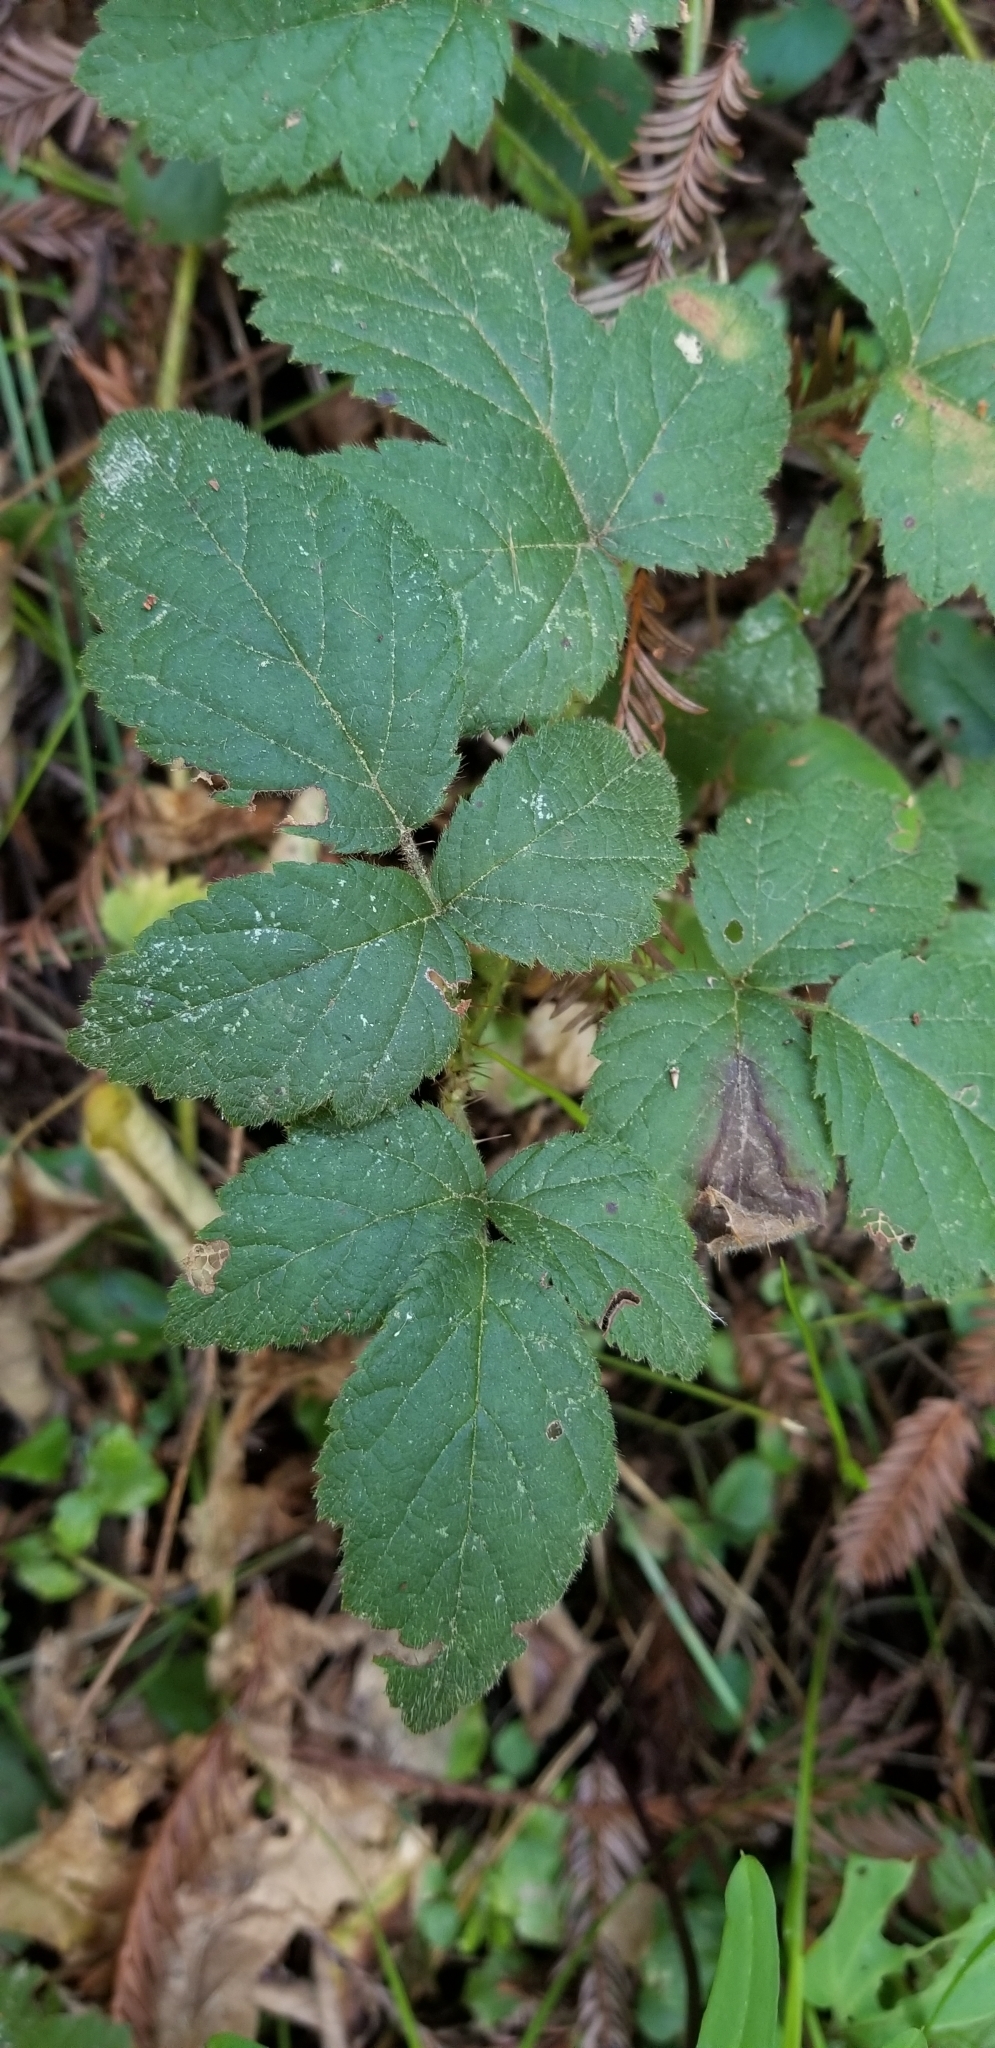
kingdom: Plantae
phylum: Tracheophyta
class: Magnoliopsida
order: Rosales
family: Rosaceae
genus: Rubus
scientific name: Rubus ursinus
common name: Pacific blackberry
